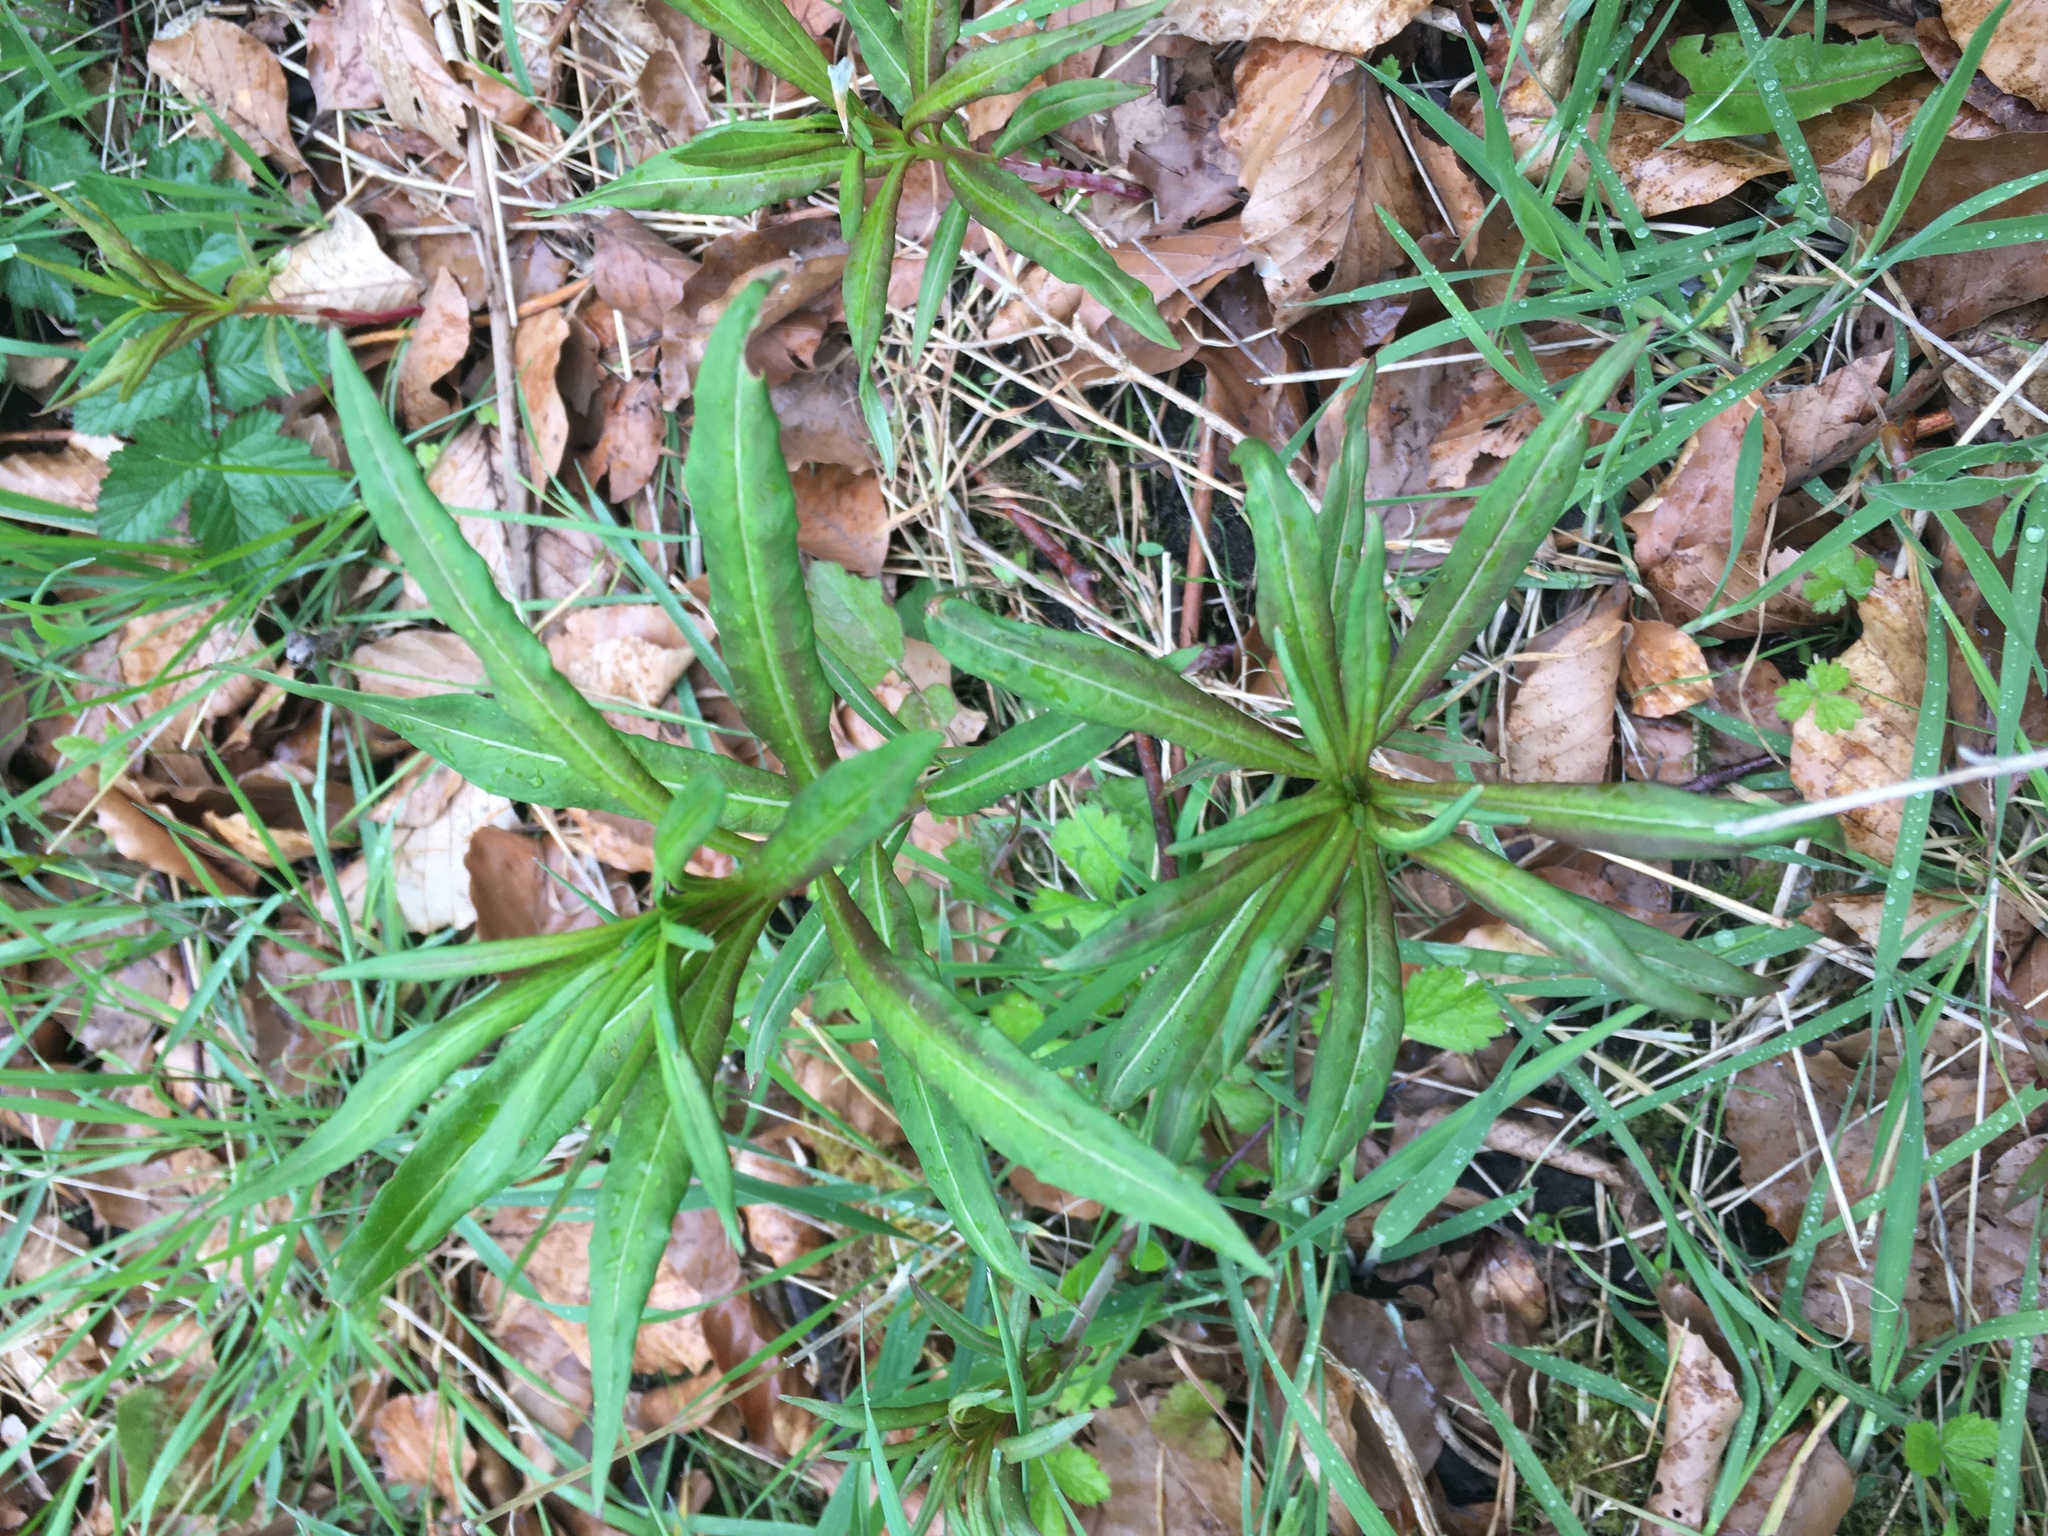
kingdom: Plantae
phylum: Tracheophyta
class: Magnoliopsida
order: Myrtales
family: Onagraceae
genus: Chamaenerion
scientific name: Chamaenerion angustifolium
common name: Fireweed
